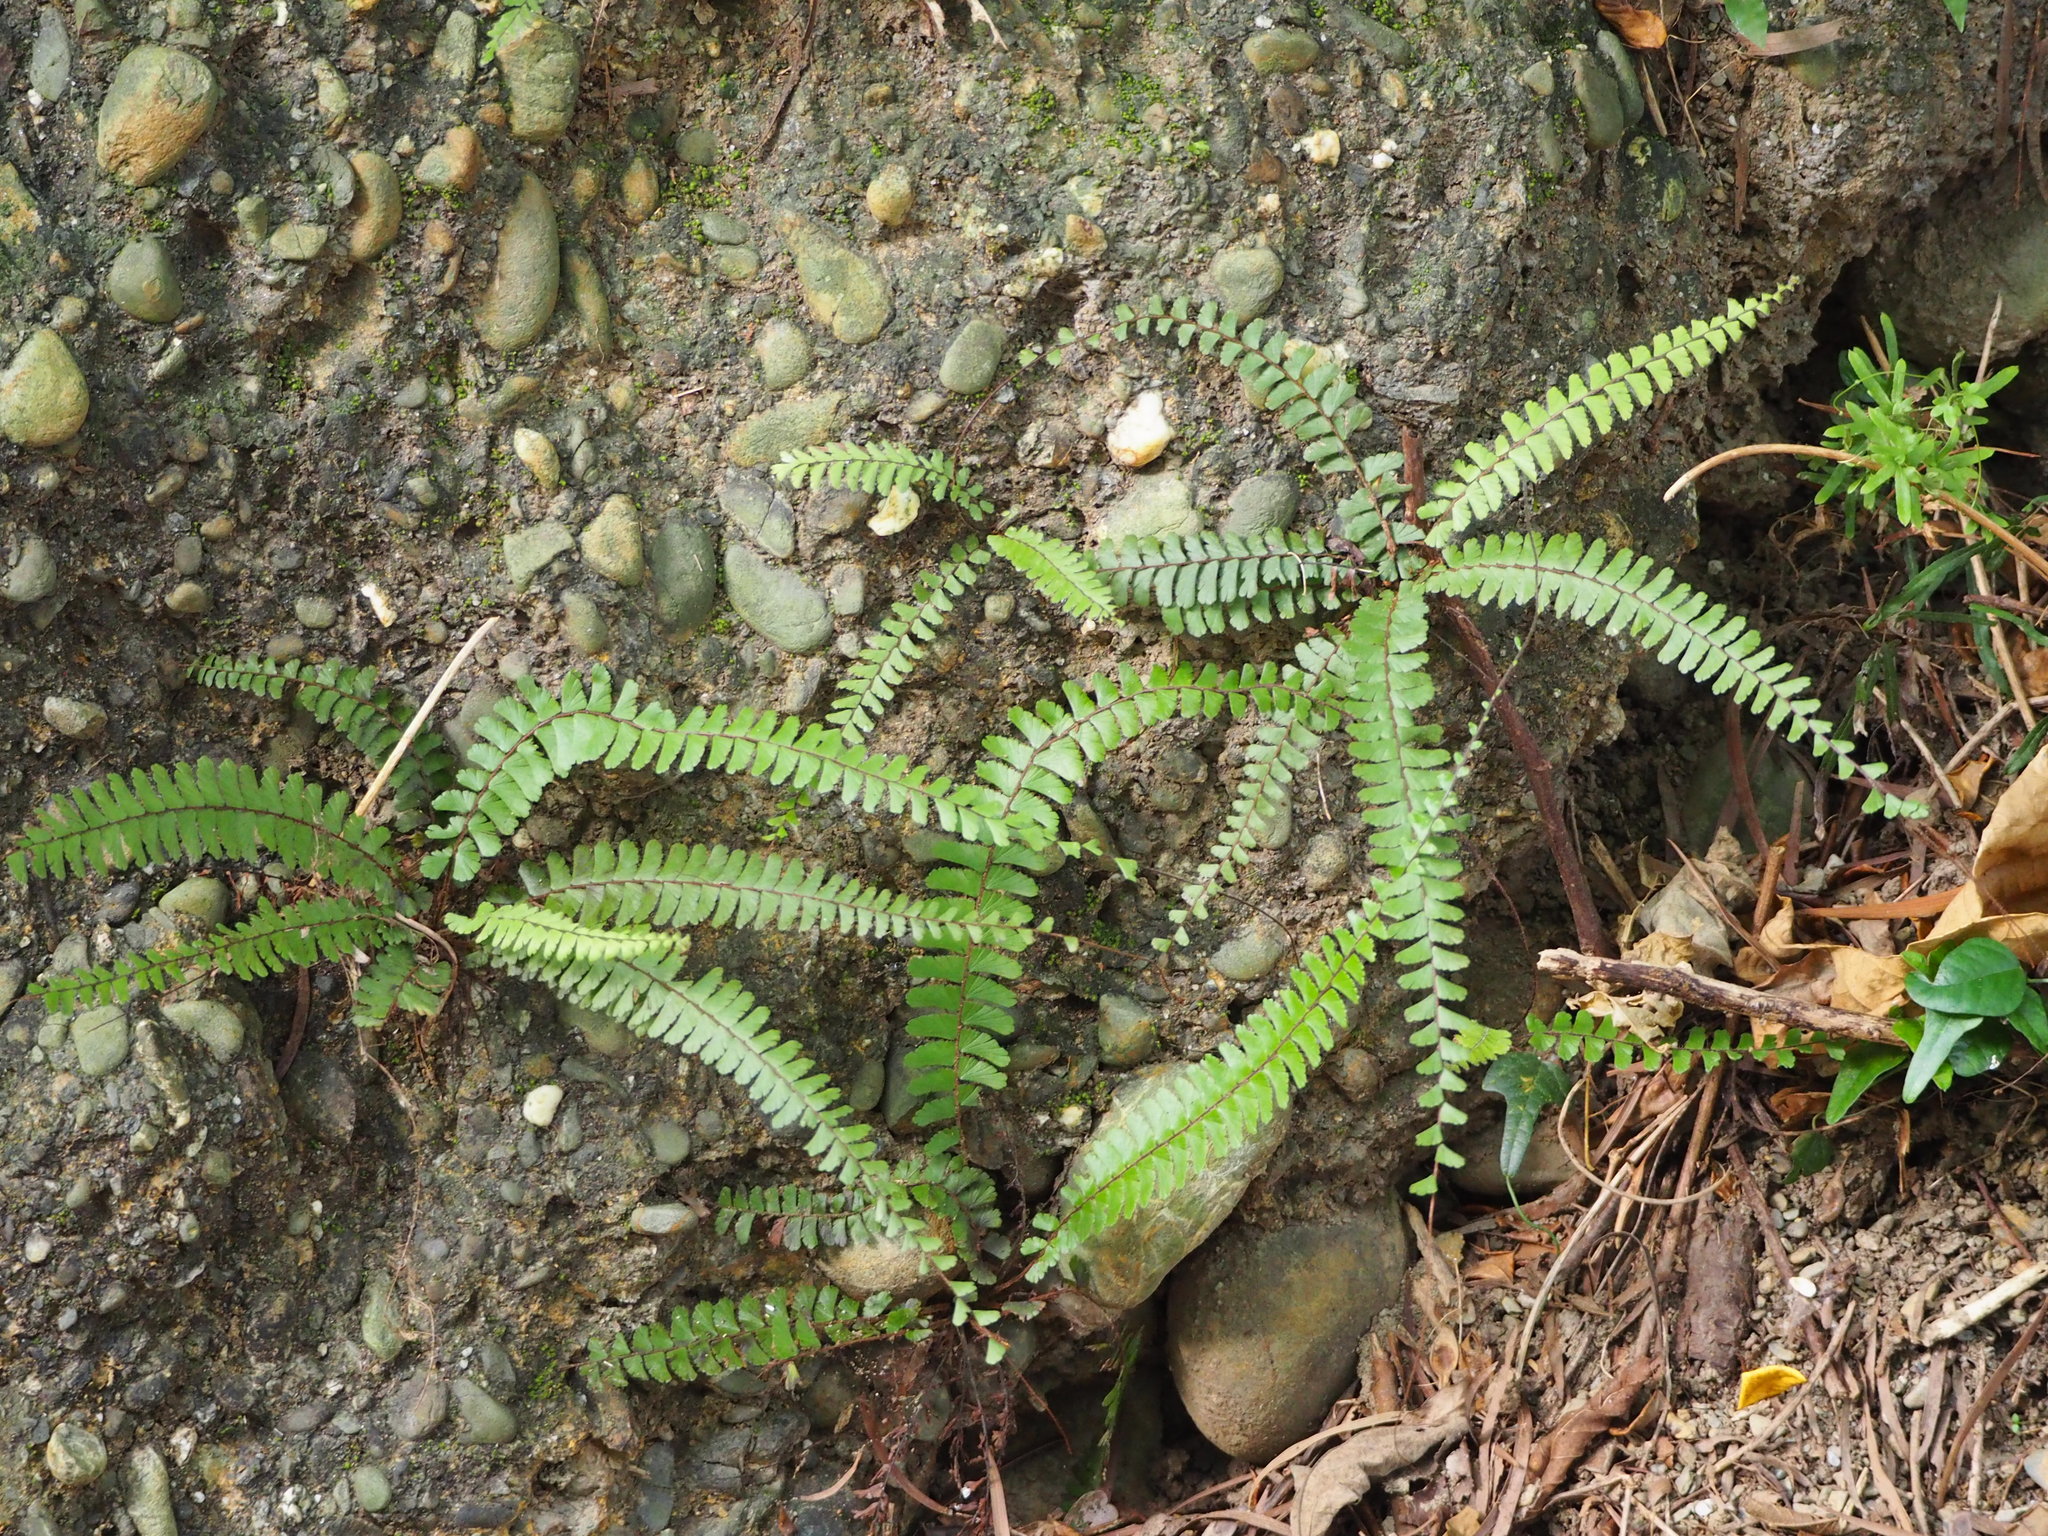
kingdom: Plantae
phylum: Tracheophyta
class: Polypodiopsida
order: Polypodiales
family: Pteridaceae
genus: Adiantum
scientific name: Adiantum ciliatum
